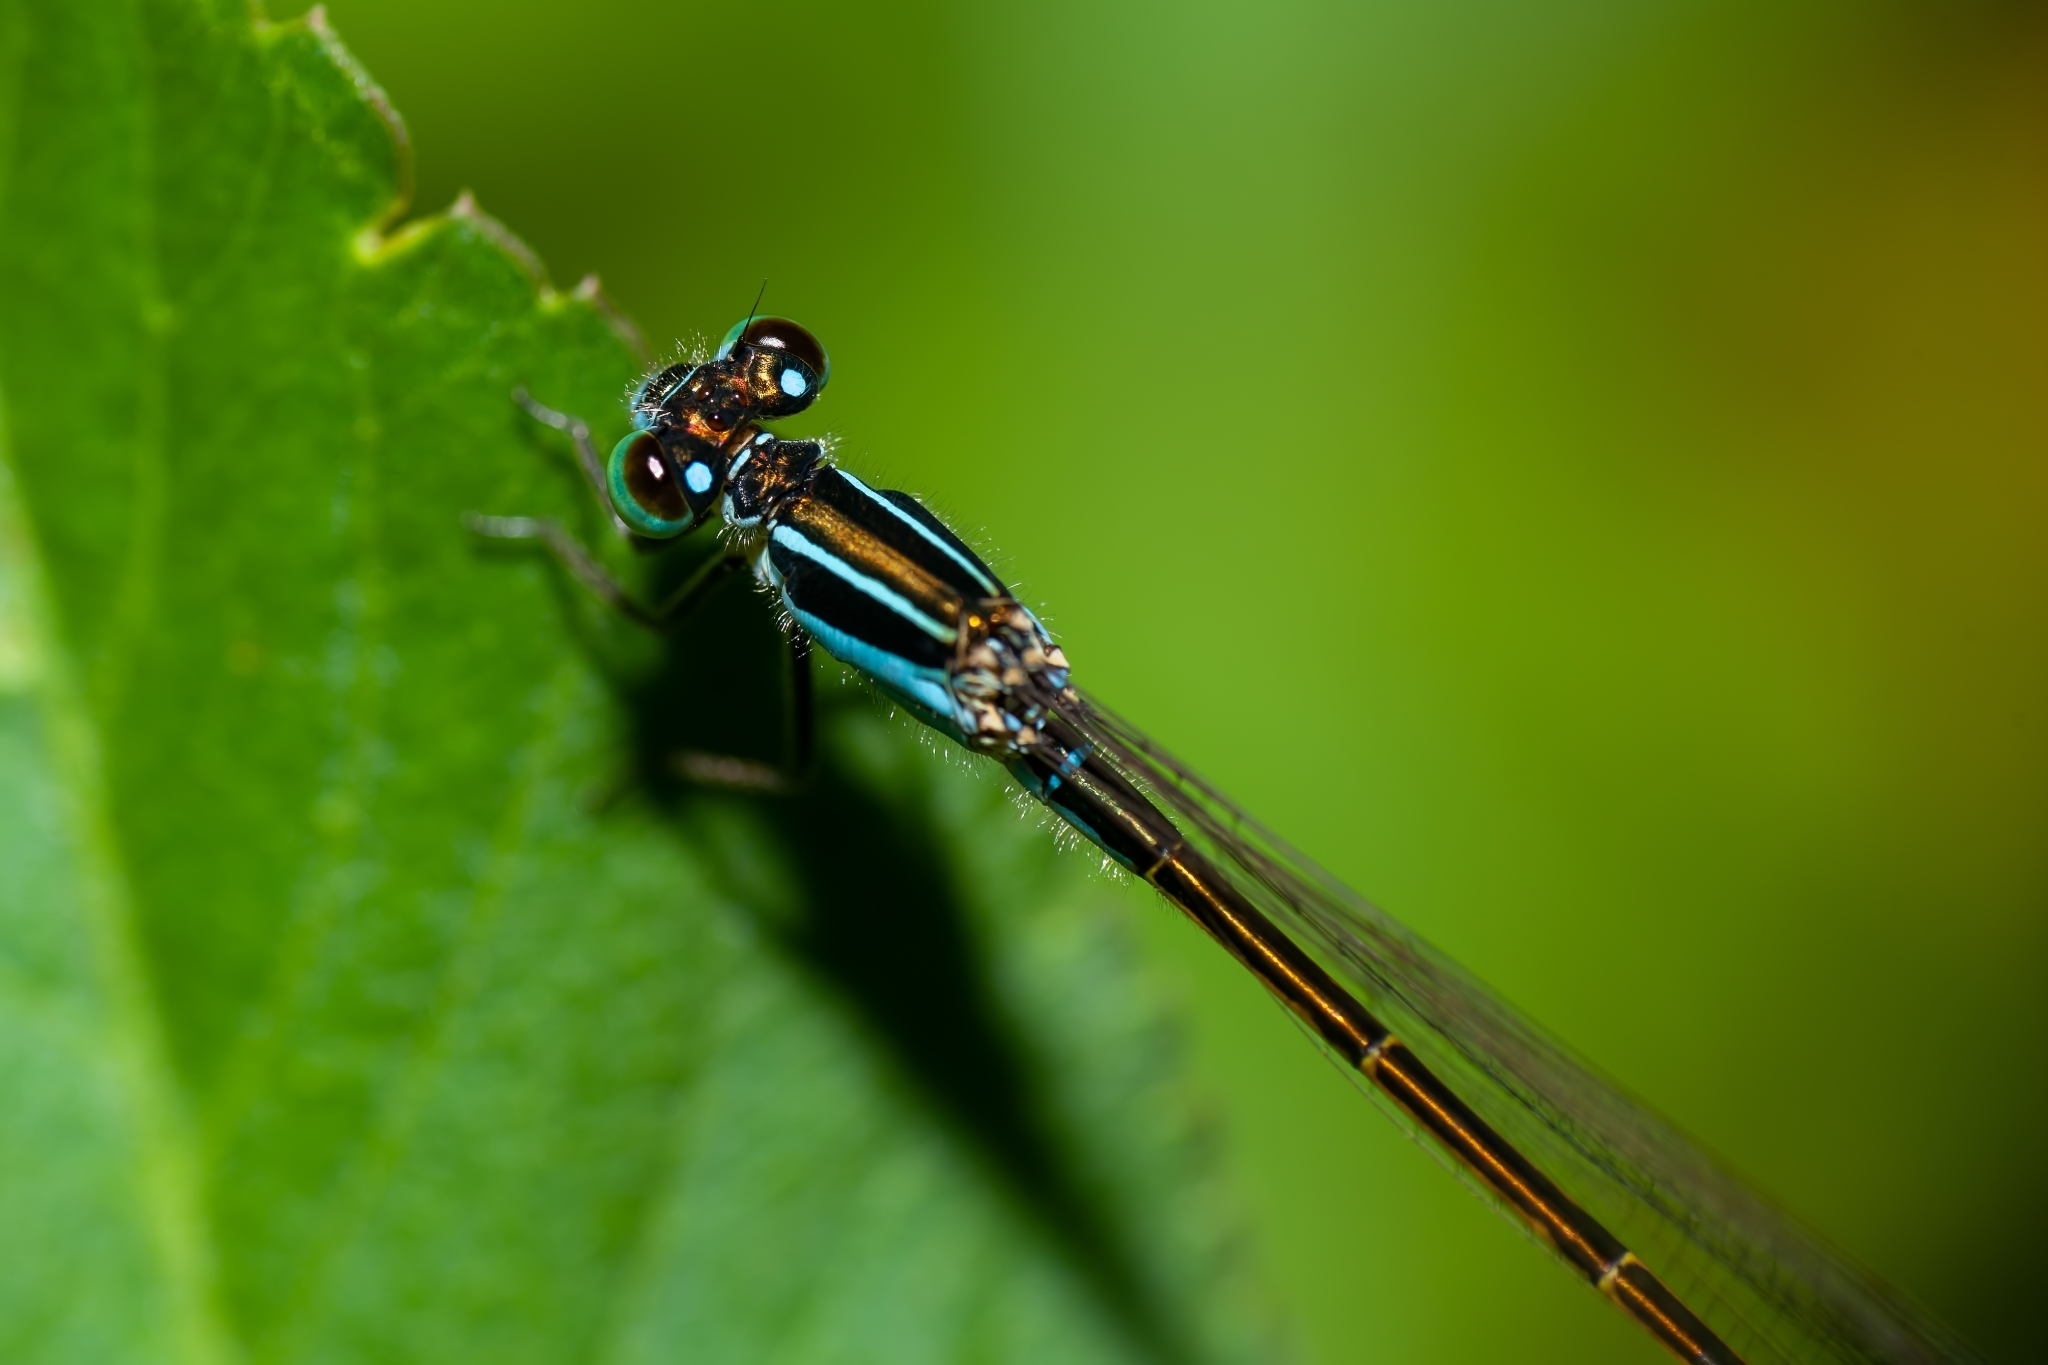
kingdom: Animalia
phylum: Arthropoda
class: Insecta
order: Odonata
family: Coenagrionidae
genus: Ischnura
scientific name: Ischnura ramburii
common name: Rambur's forktail
